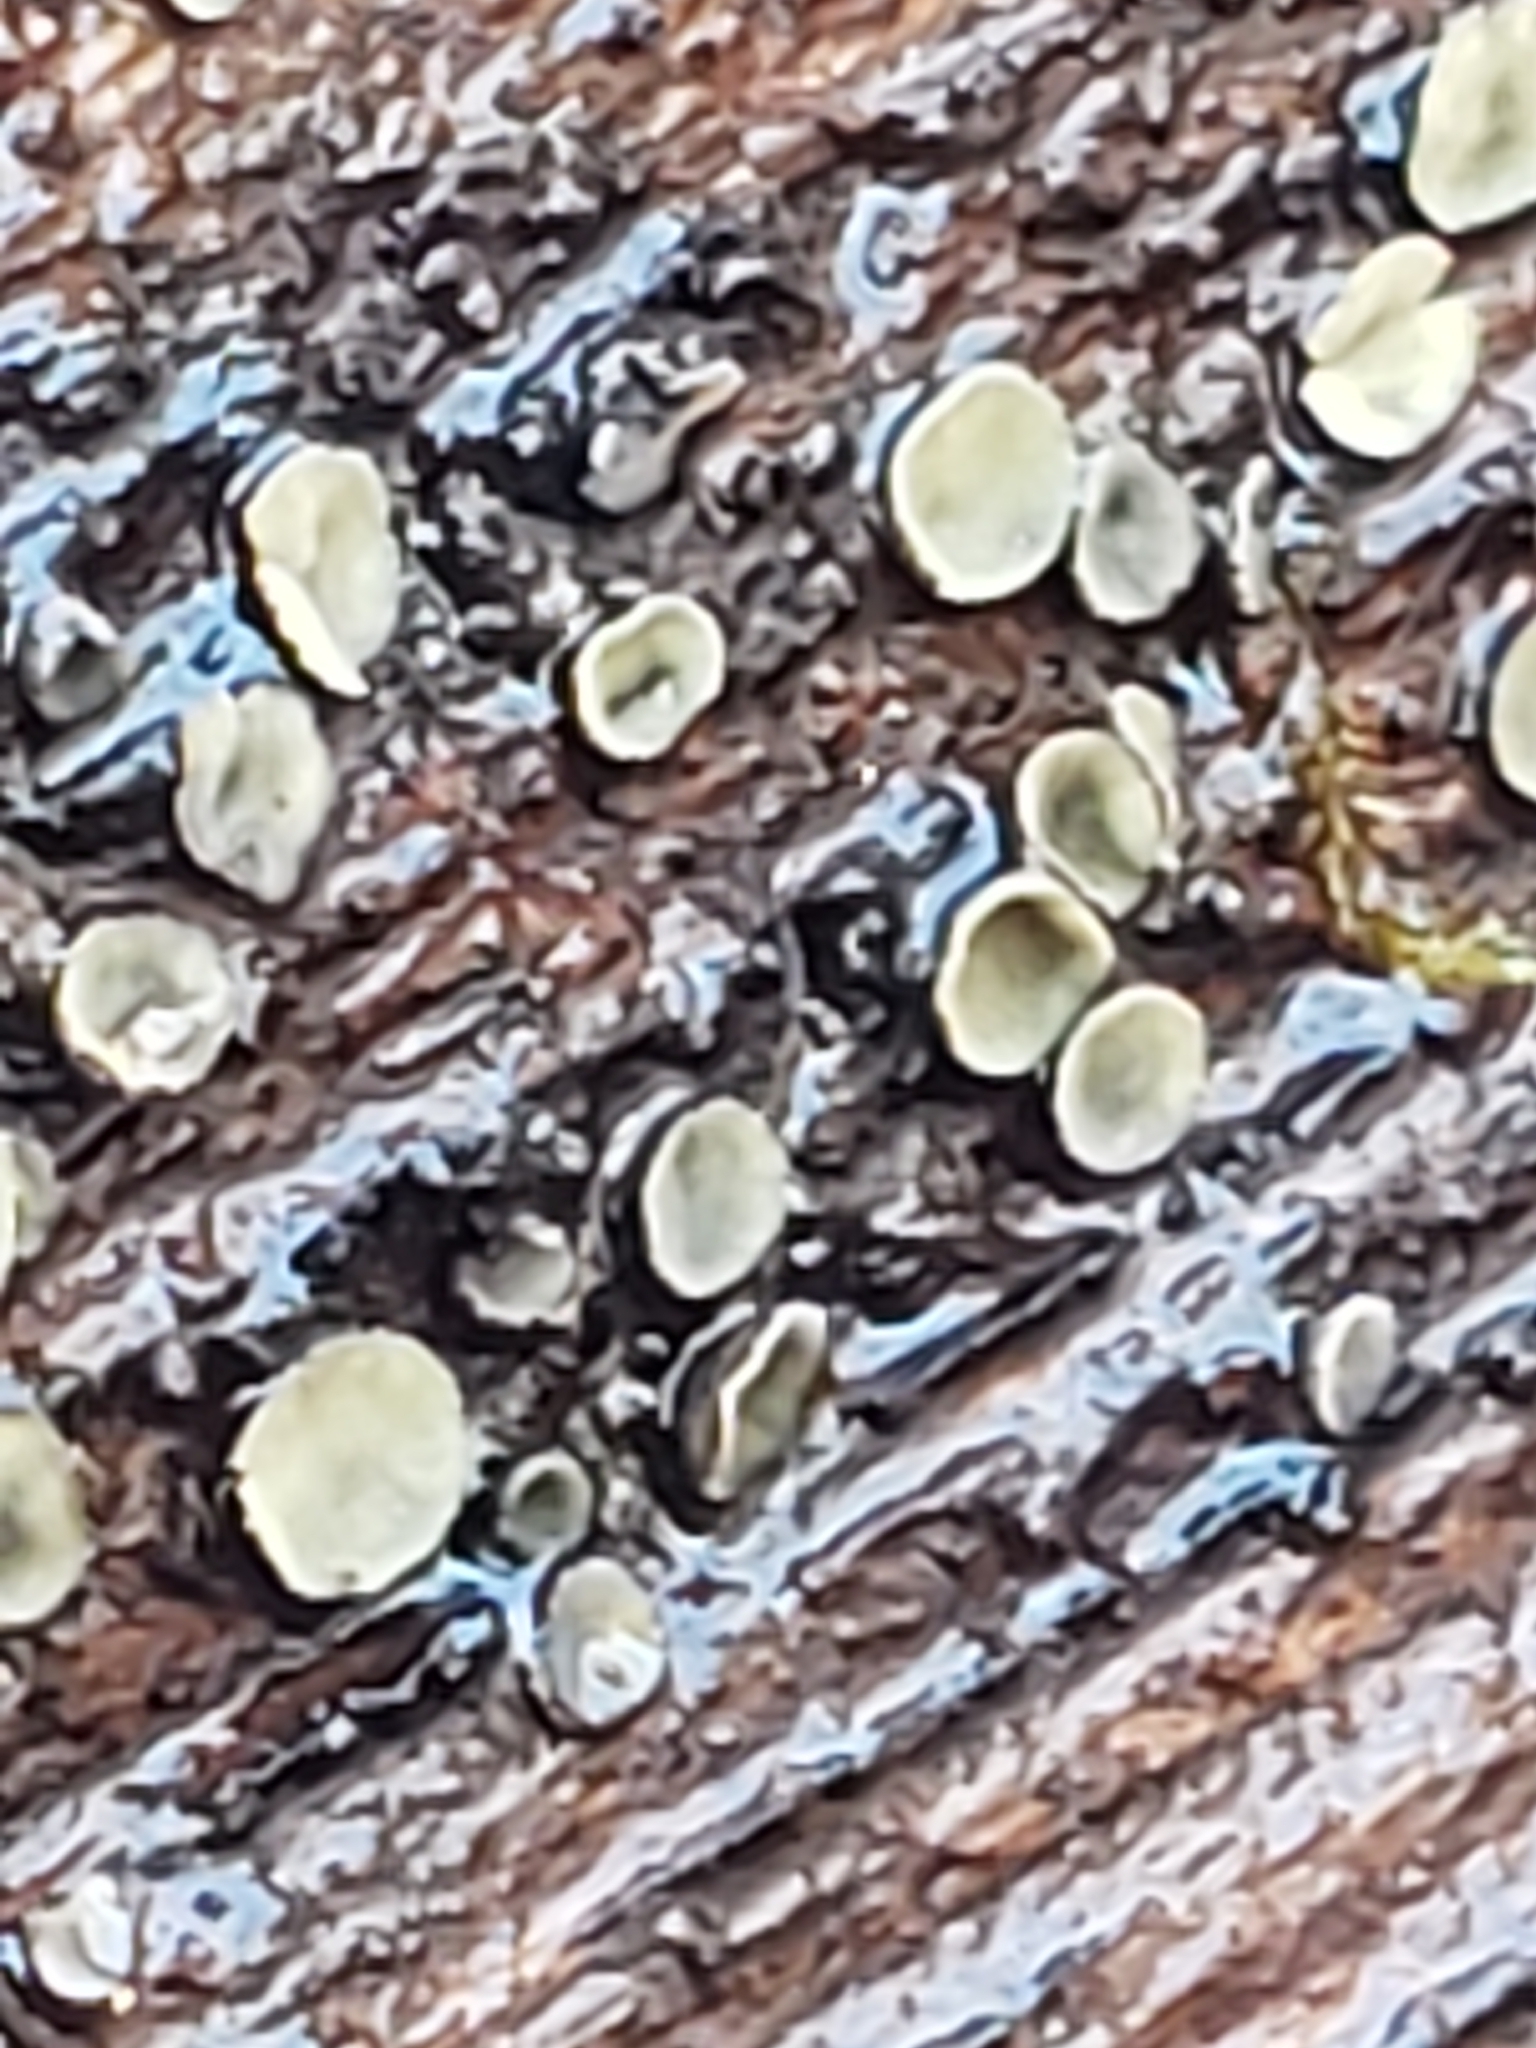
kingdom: Fungi
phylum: Ascomycota
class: Leotiomycetes
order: Helotiales
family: Chlorospleniaceae
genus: Chlorosplenium
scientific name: Chlorosplenium chlora
